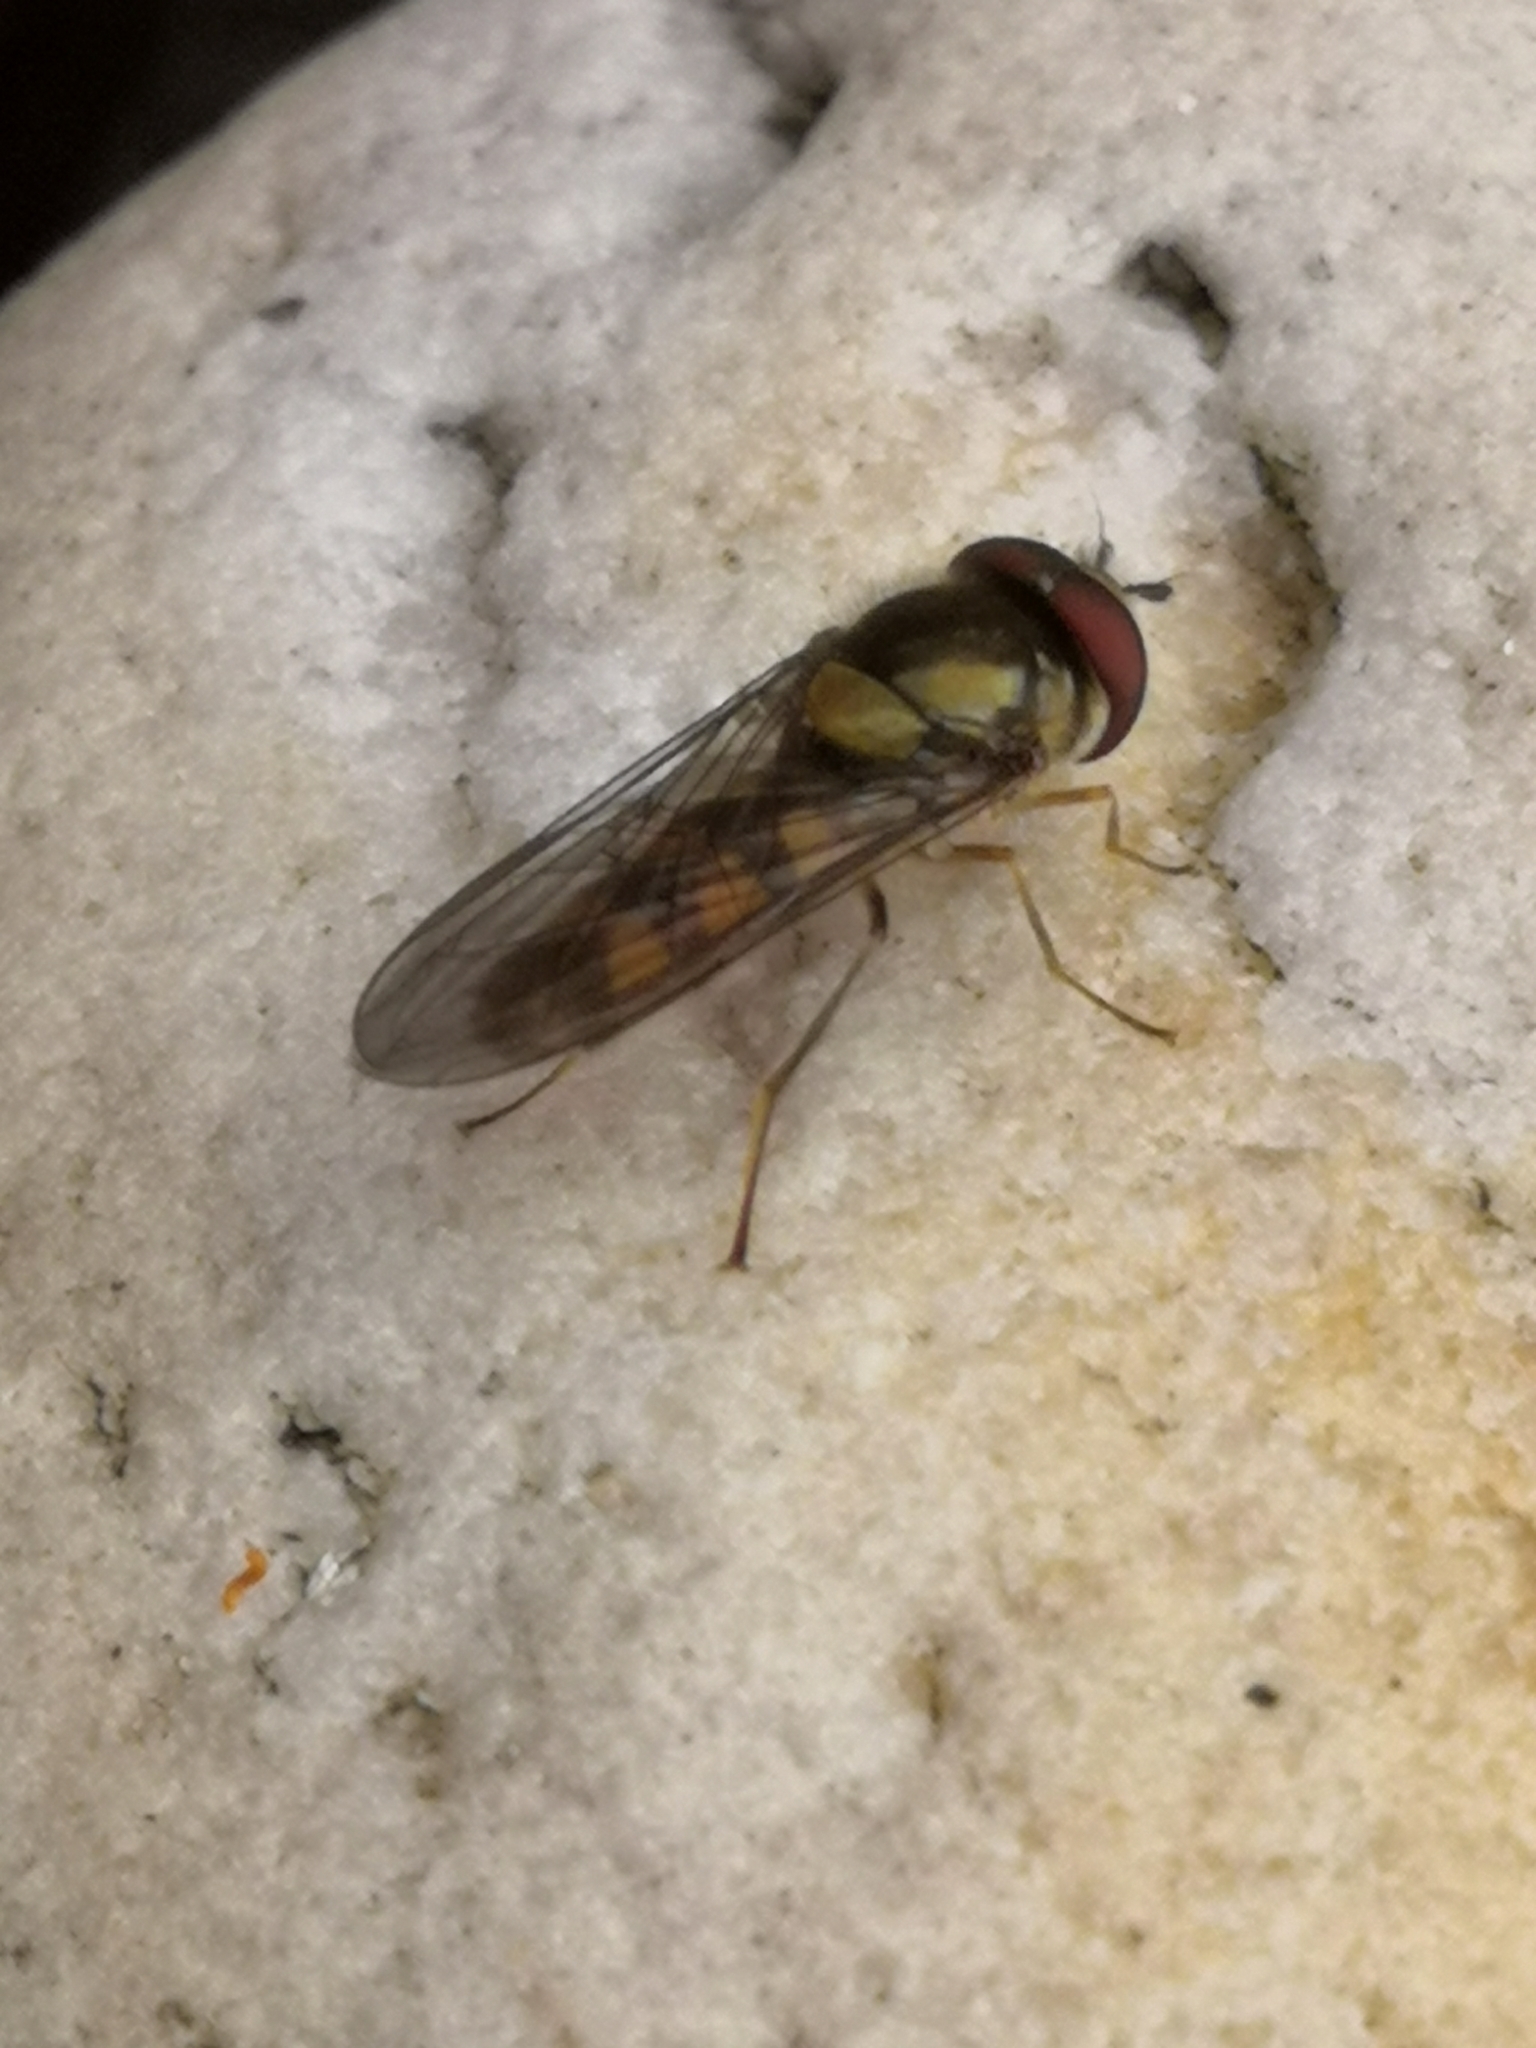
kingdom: Animalia
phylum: Arthropoda
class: Insecta
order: Diptera
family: Syrphidae
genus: Meliscaeva
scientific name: Meliscaeva auricollis
